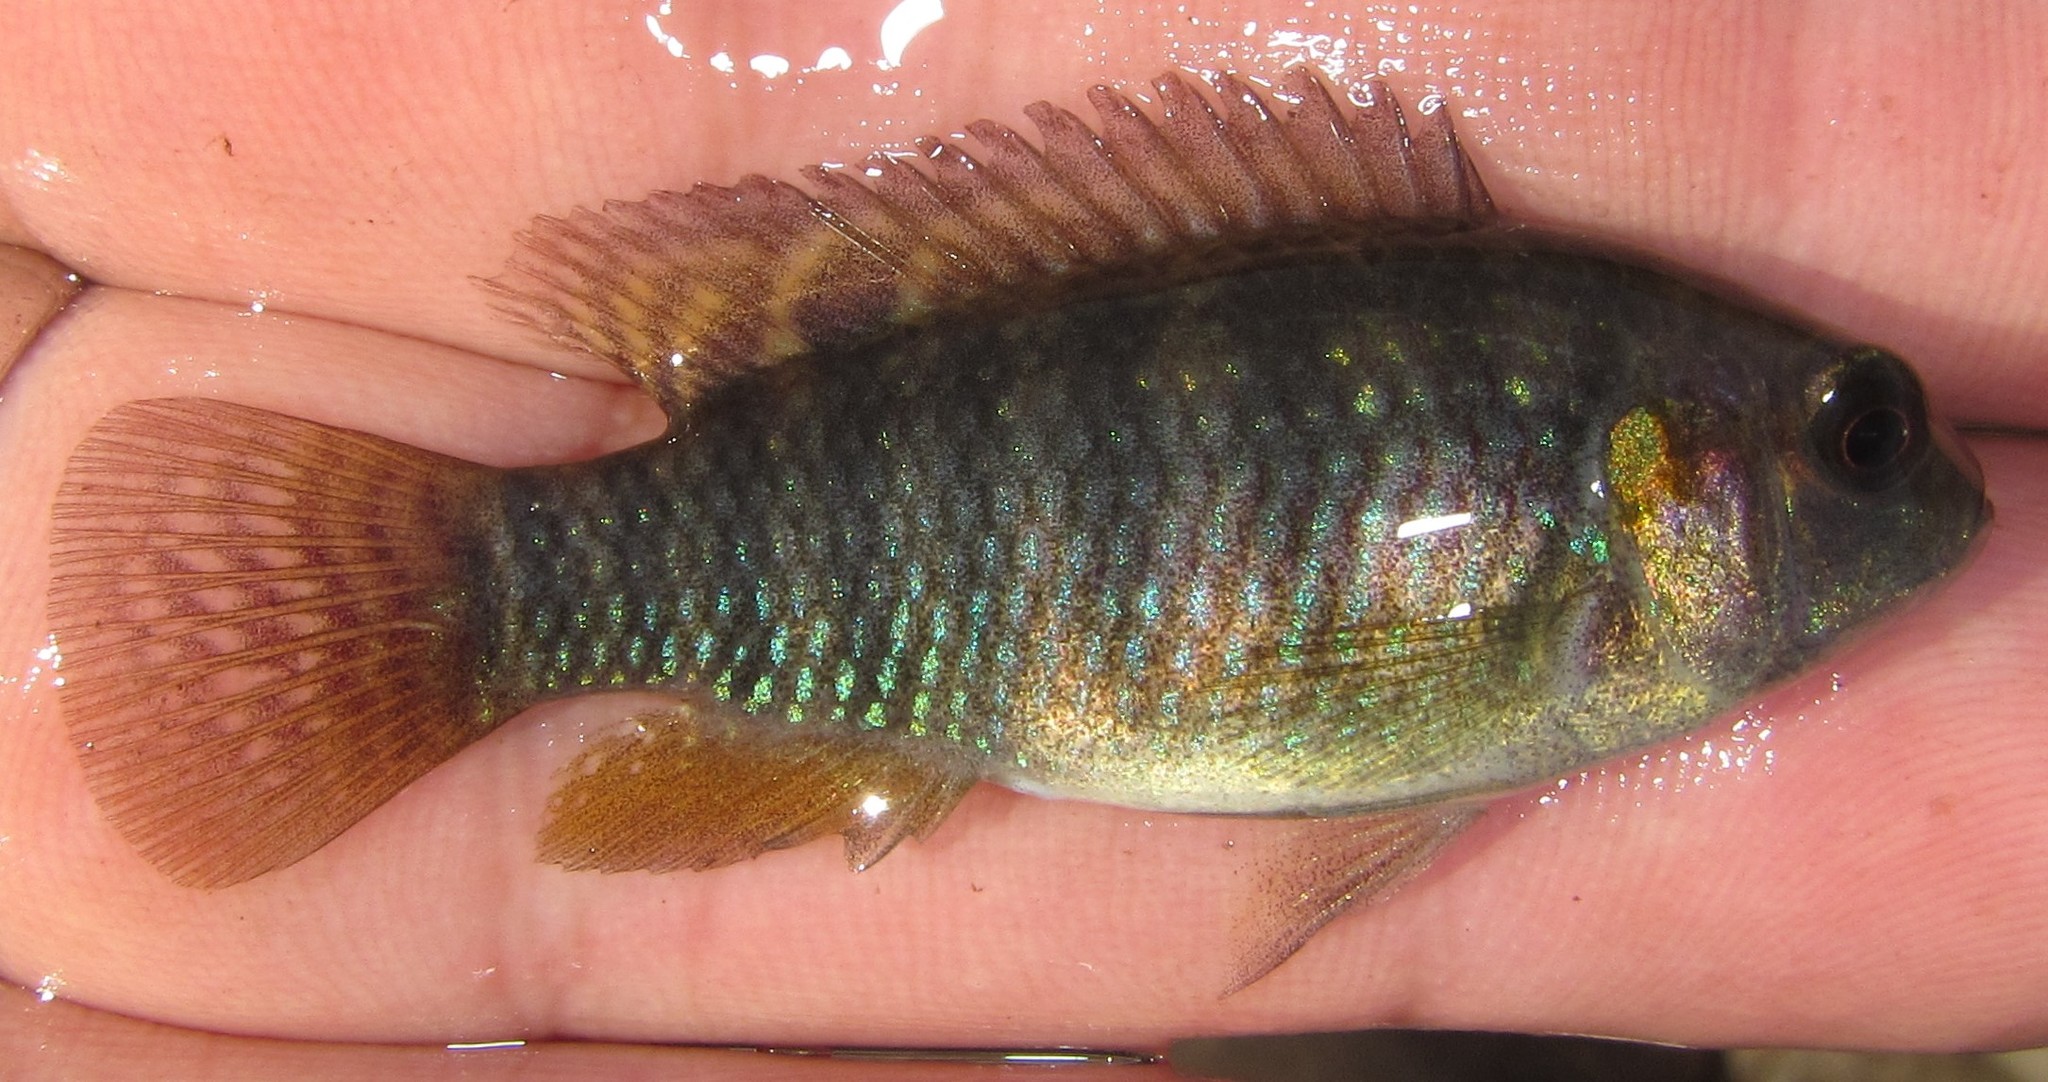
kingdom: Animalia
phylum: Chordata
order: Perciformes
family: Cichlidae
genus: Tilapia
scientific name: Tilapia ruweti
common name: Okavango tilapia
